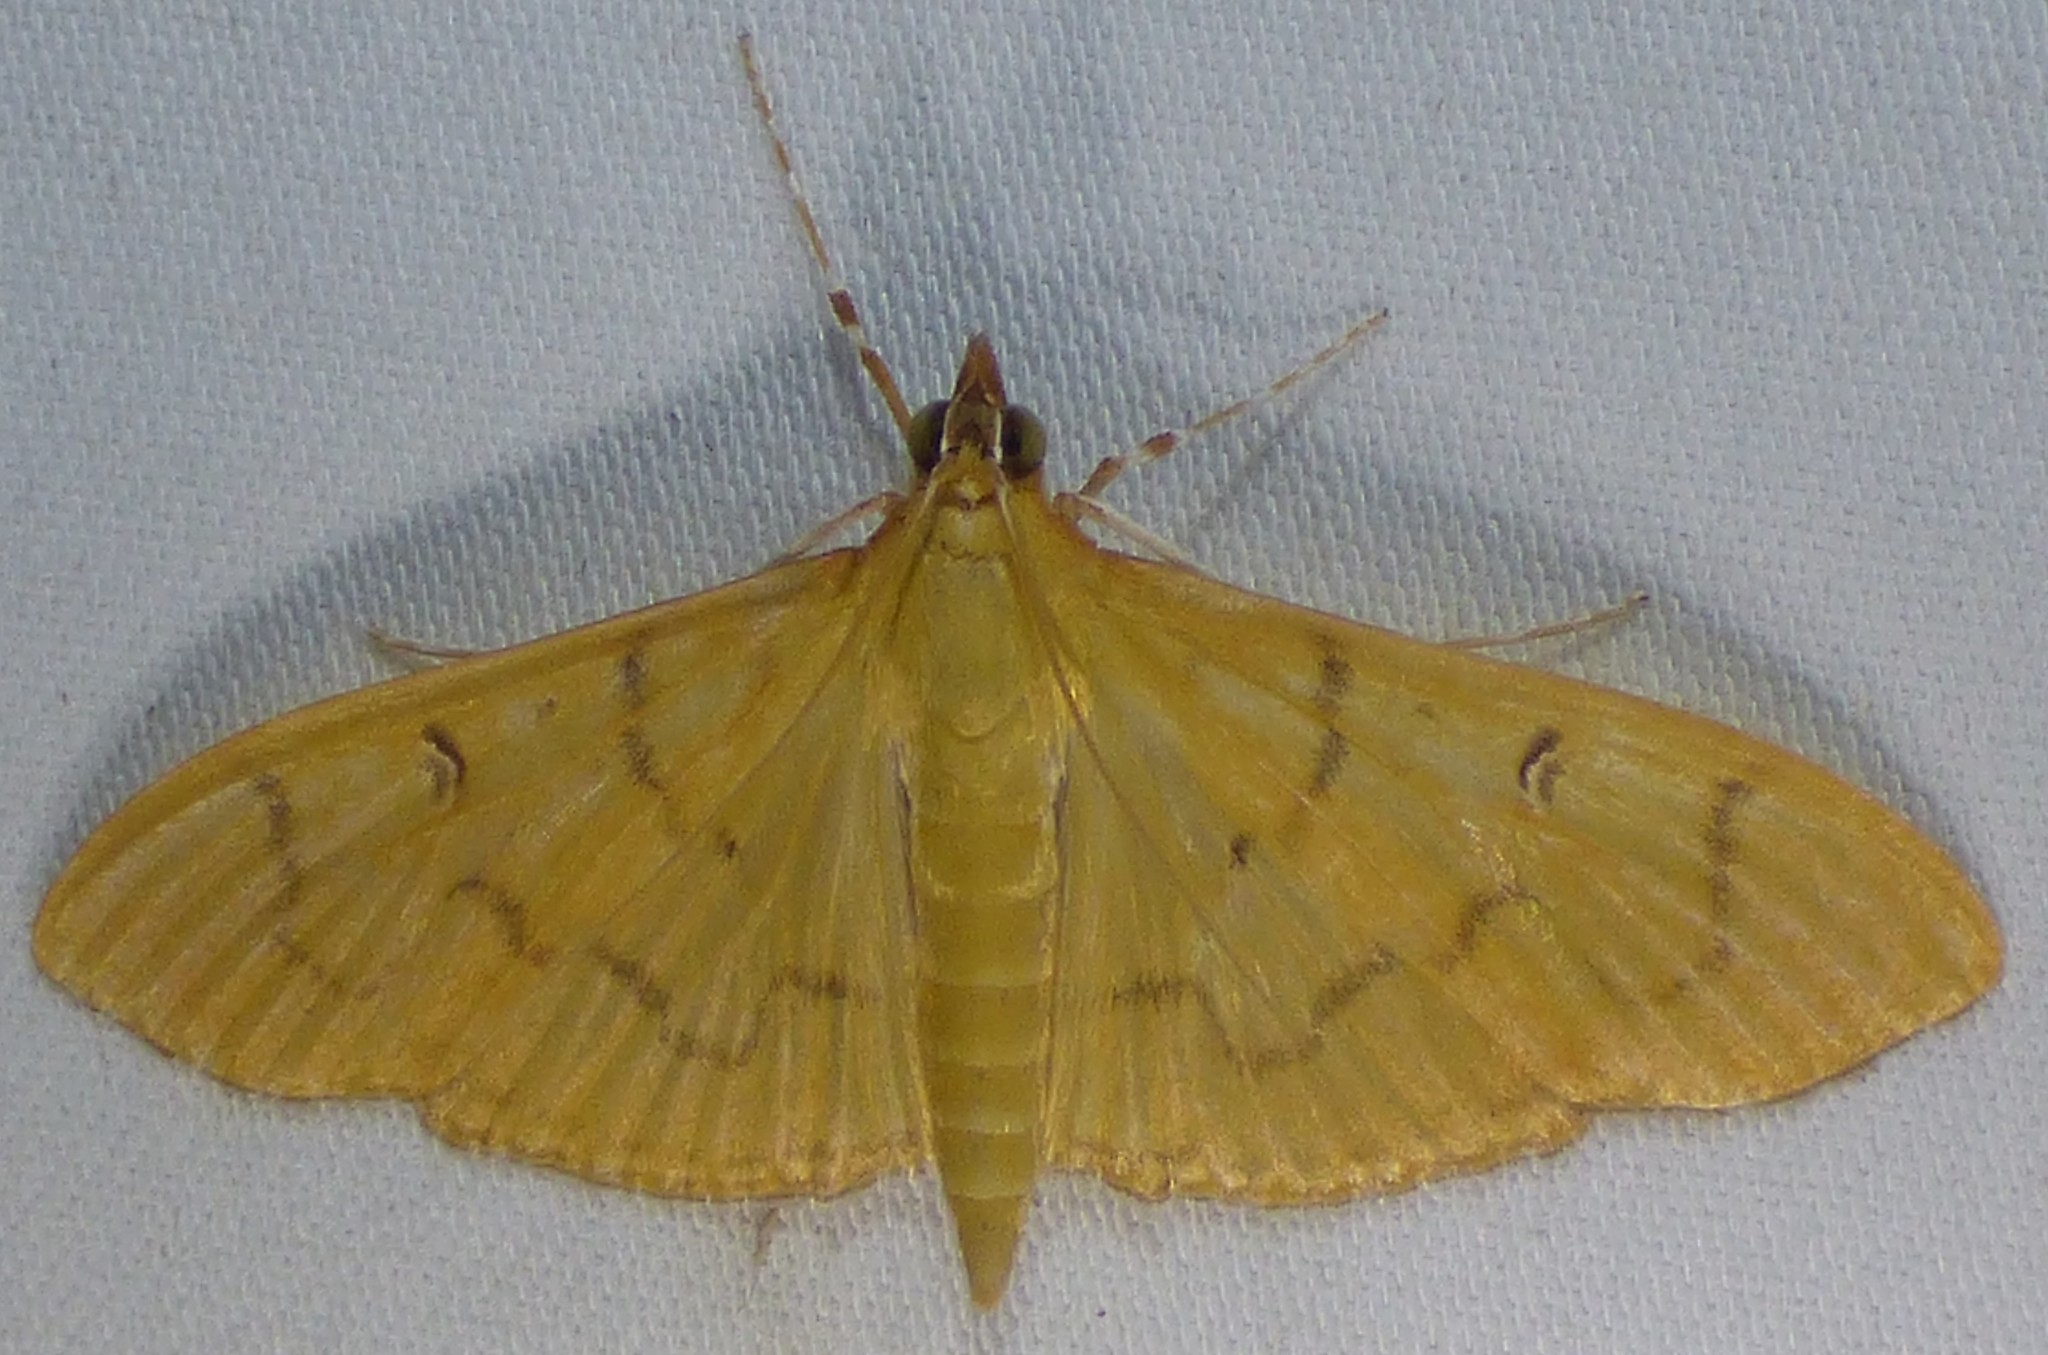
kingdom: Animalia
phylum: Arthropoda
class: Insecta
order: Lepidoptera
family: Crambidae
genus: Condylorrhiza
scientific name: Condylorrhiza vestigialis
